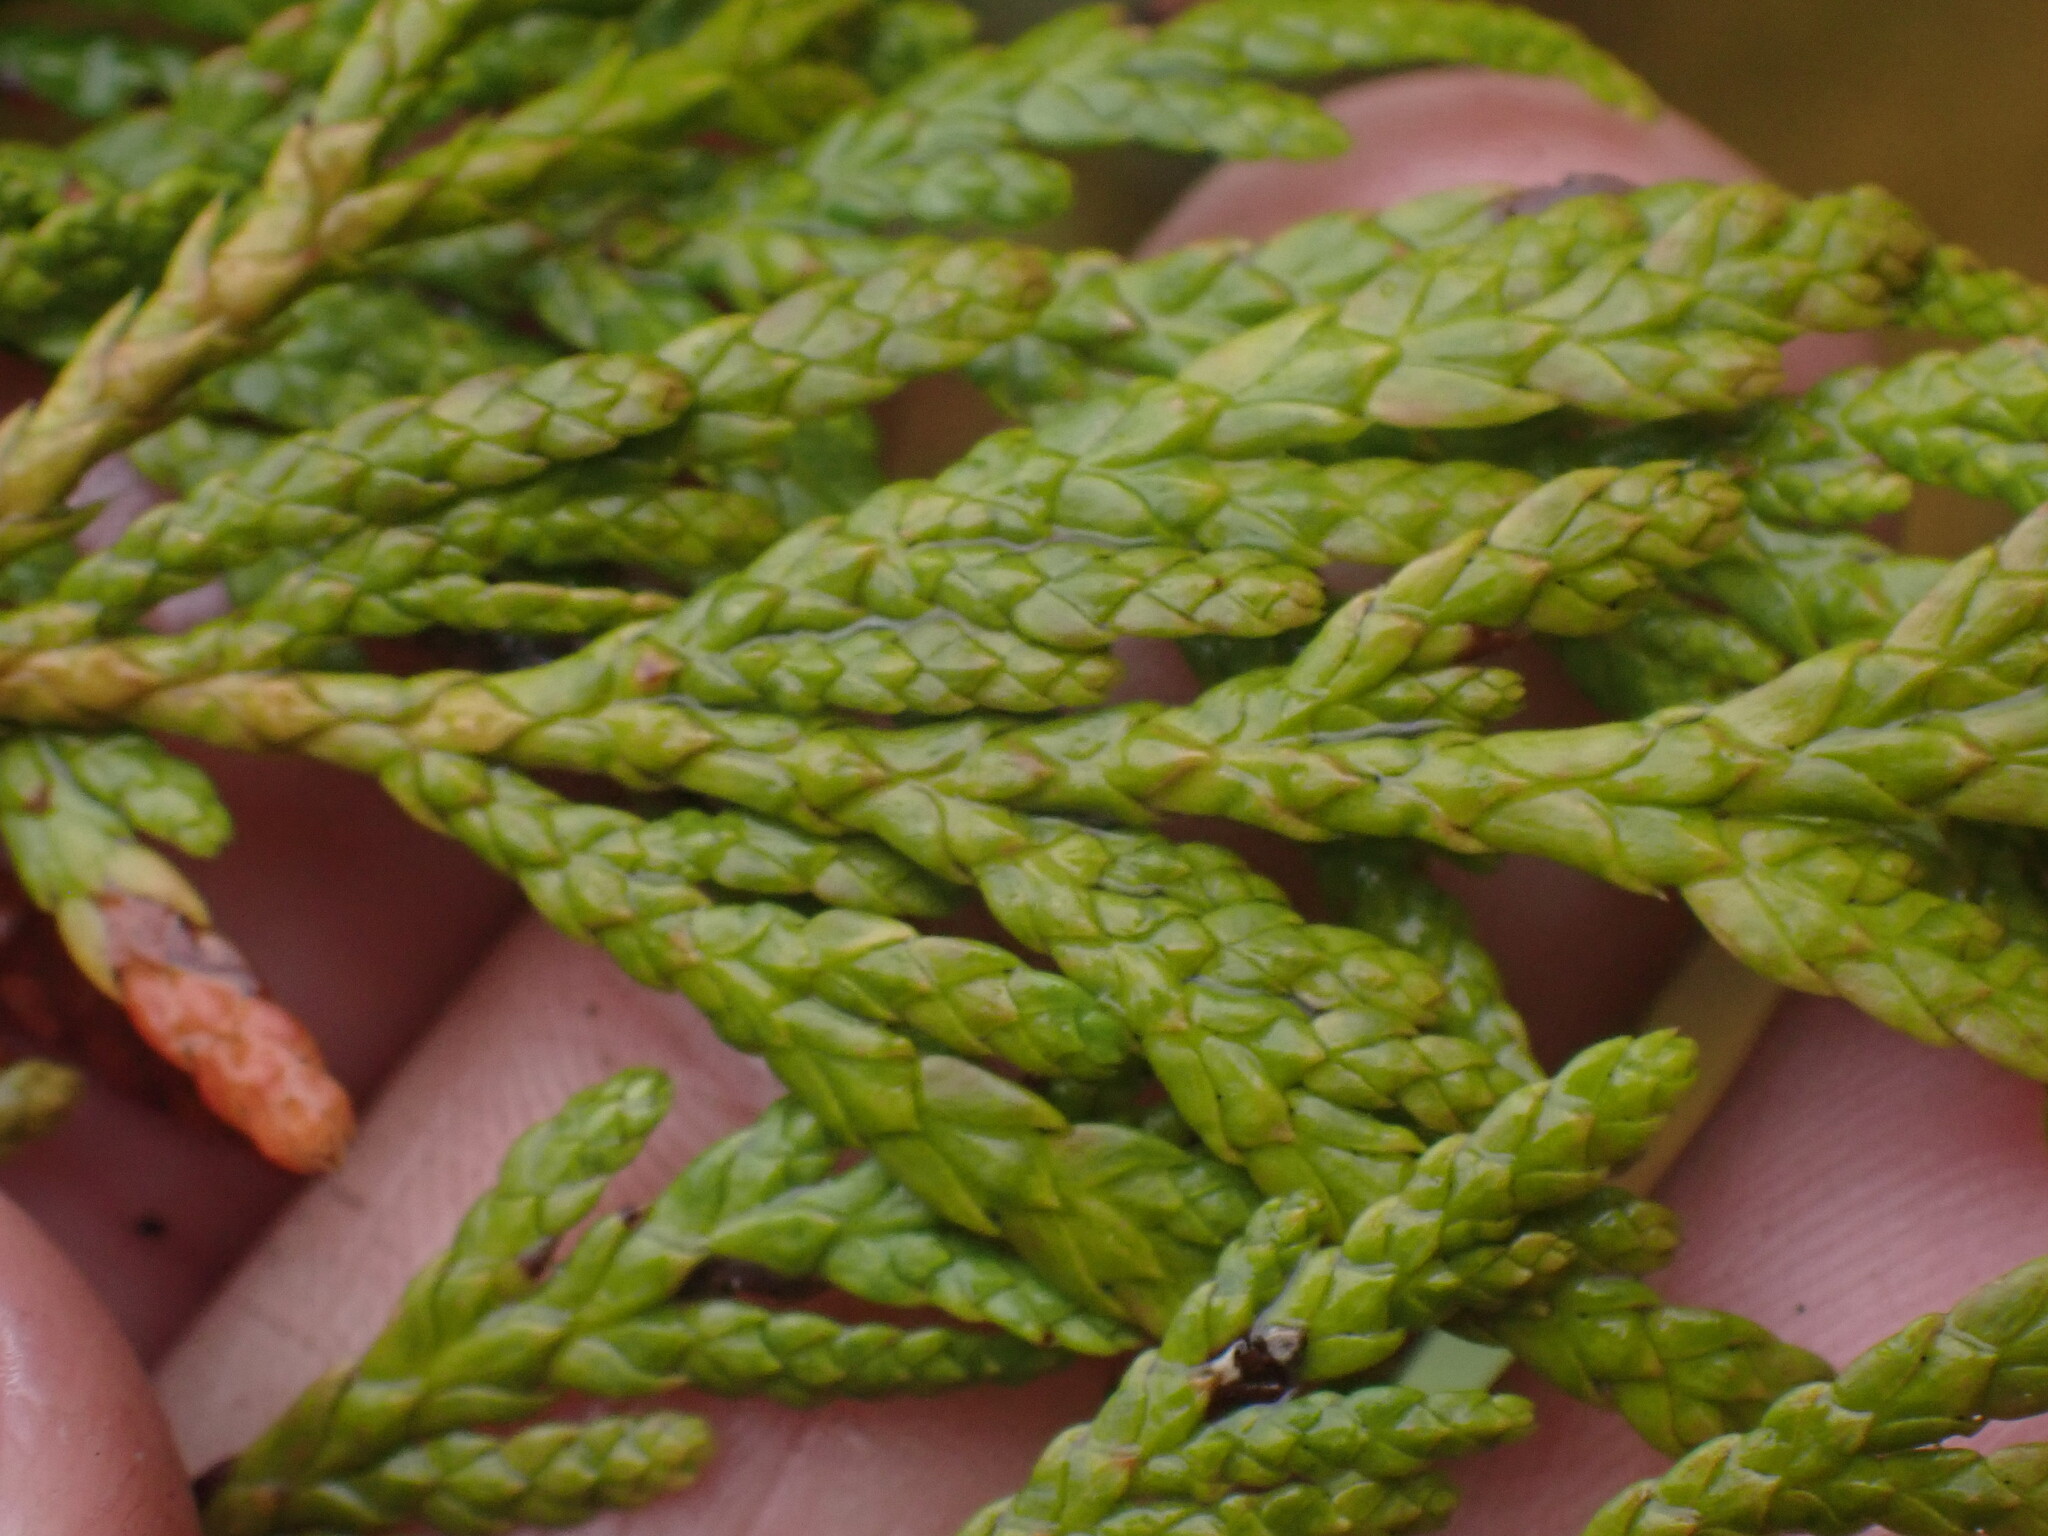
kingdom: Plantae
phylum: Tracheophyta
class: Pinopsida
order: Pinales
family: Cupressaceae
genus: Thuja
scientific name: Thuja plicata
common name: Western red-cedar
